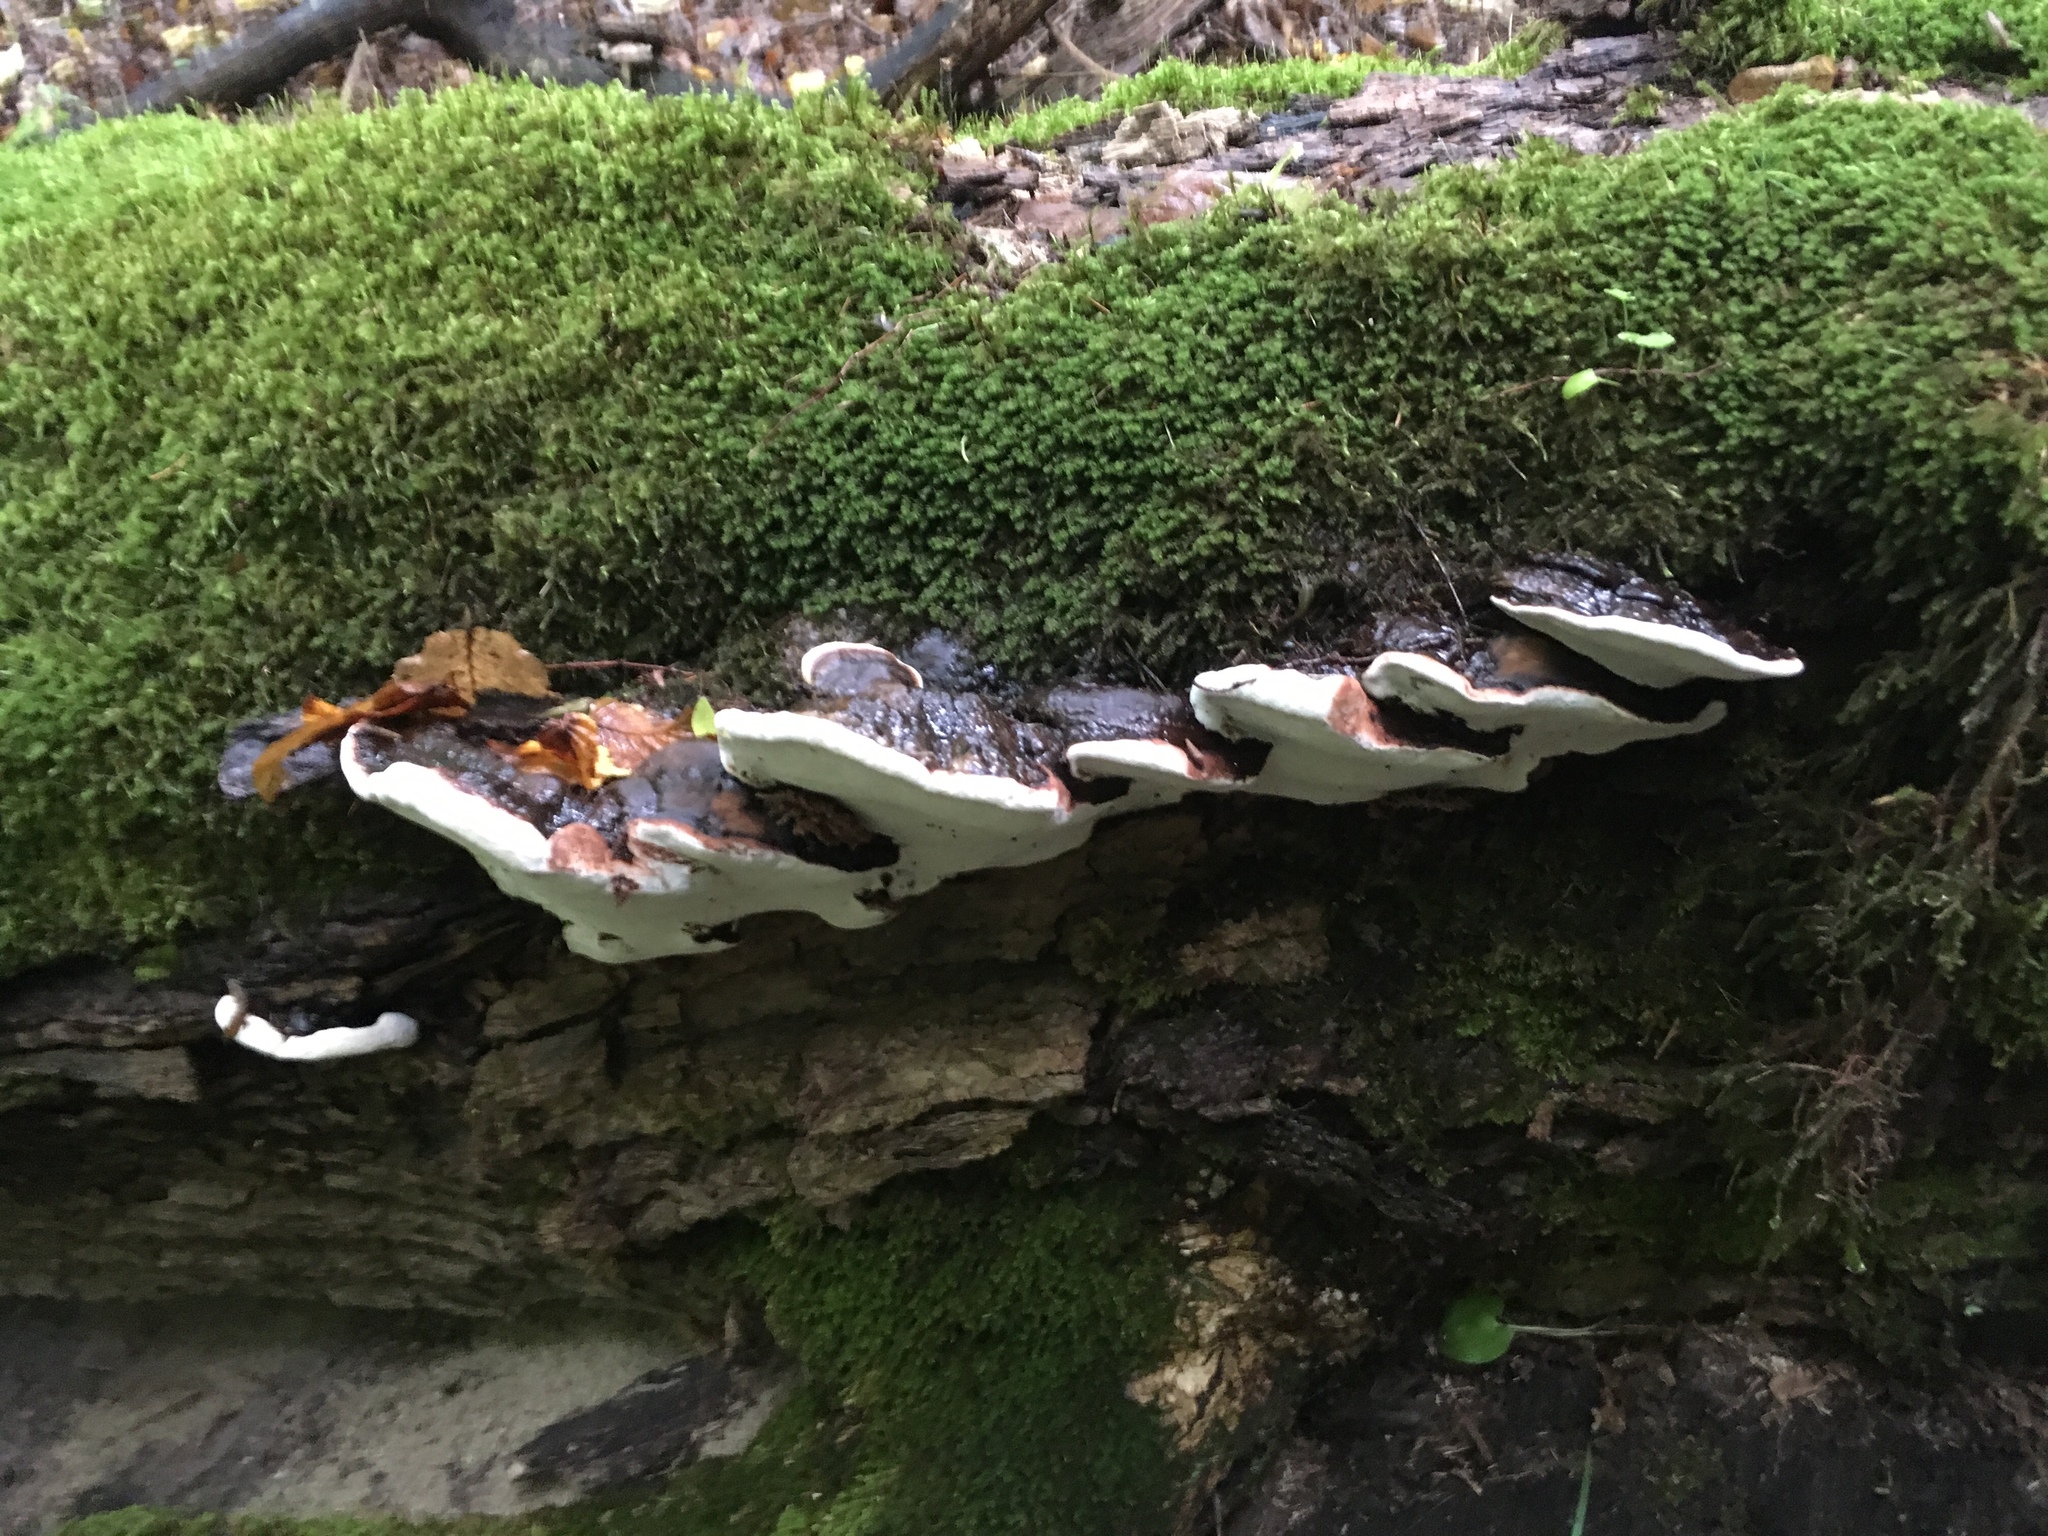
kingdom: Fungi
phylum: Basidiomycota
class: Agaricomycetes
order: Polyporales
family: Polyporaceae
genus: Ganoderma
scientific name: Ganoderma applanatum
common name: Artist's bracket
